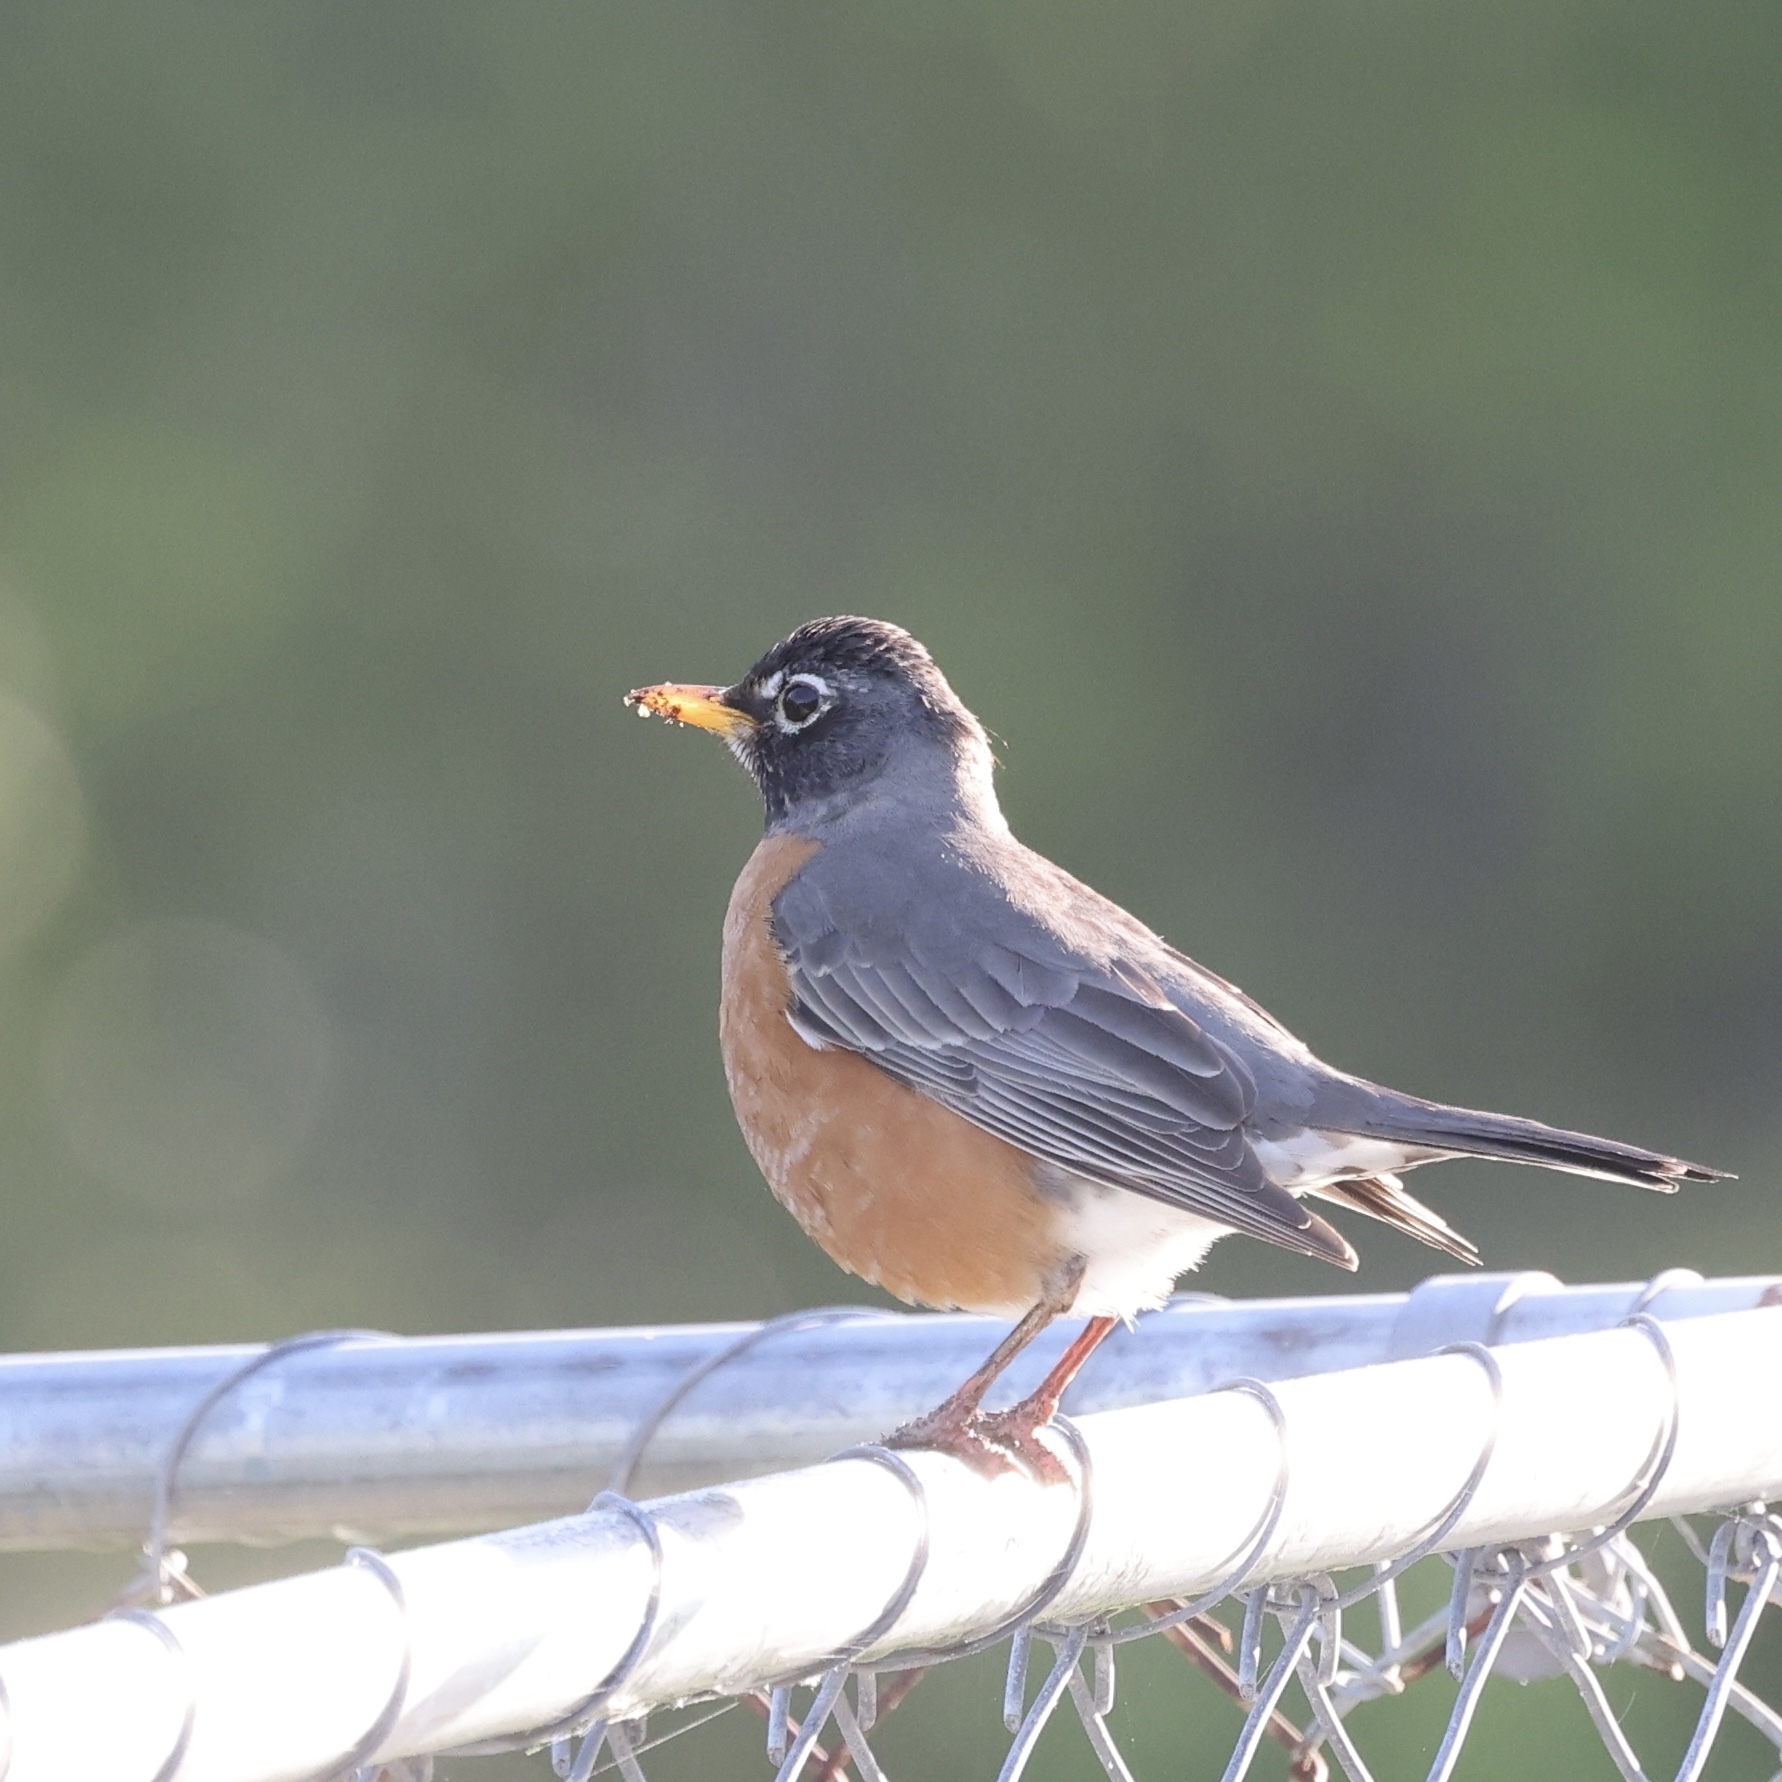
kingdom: Animalia
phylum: Chordata
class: Aves
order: Passeriformes
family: Turdidae
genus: Turdus
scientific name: Turdus migratorius
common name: American robin
